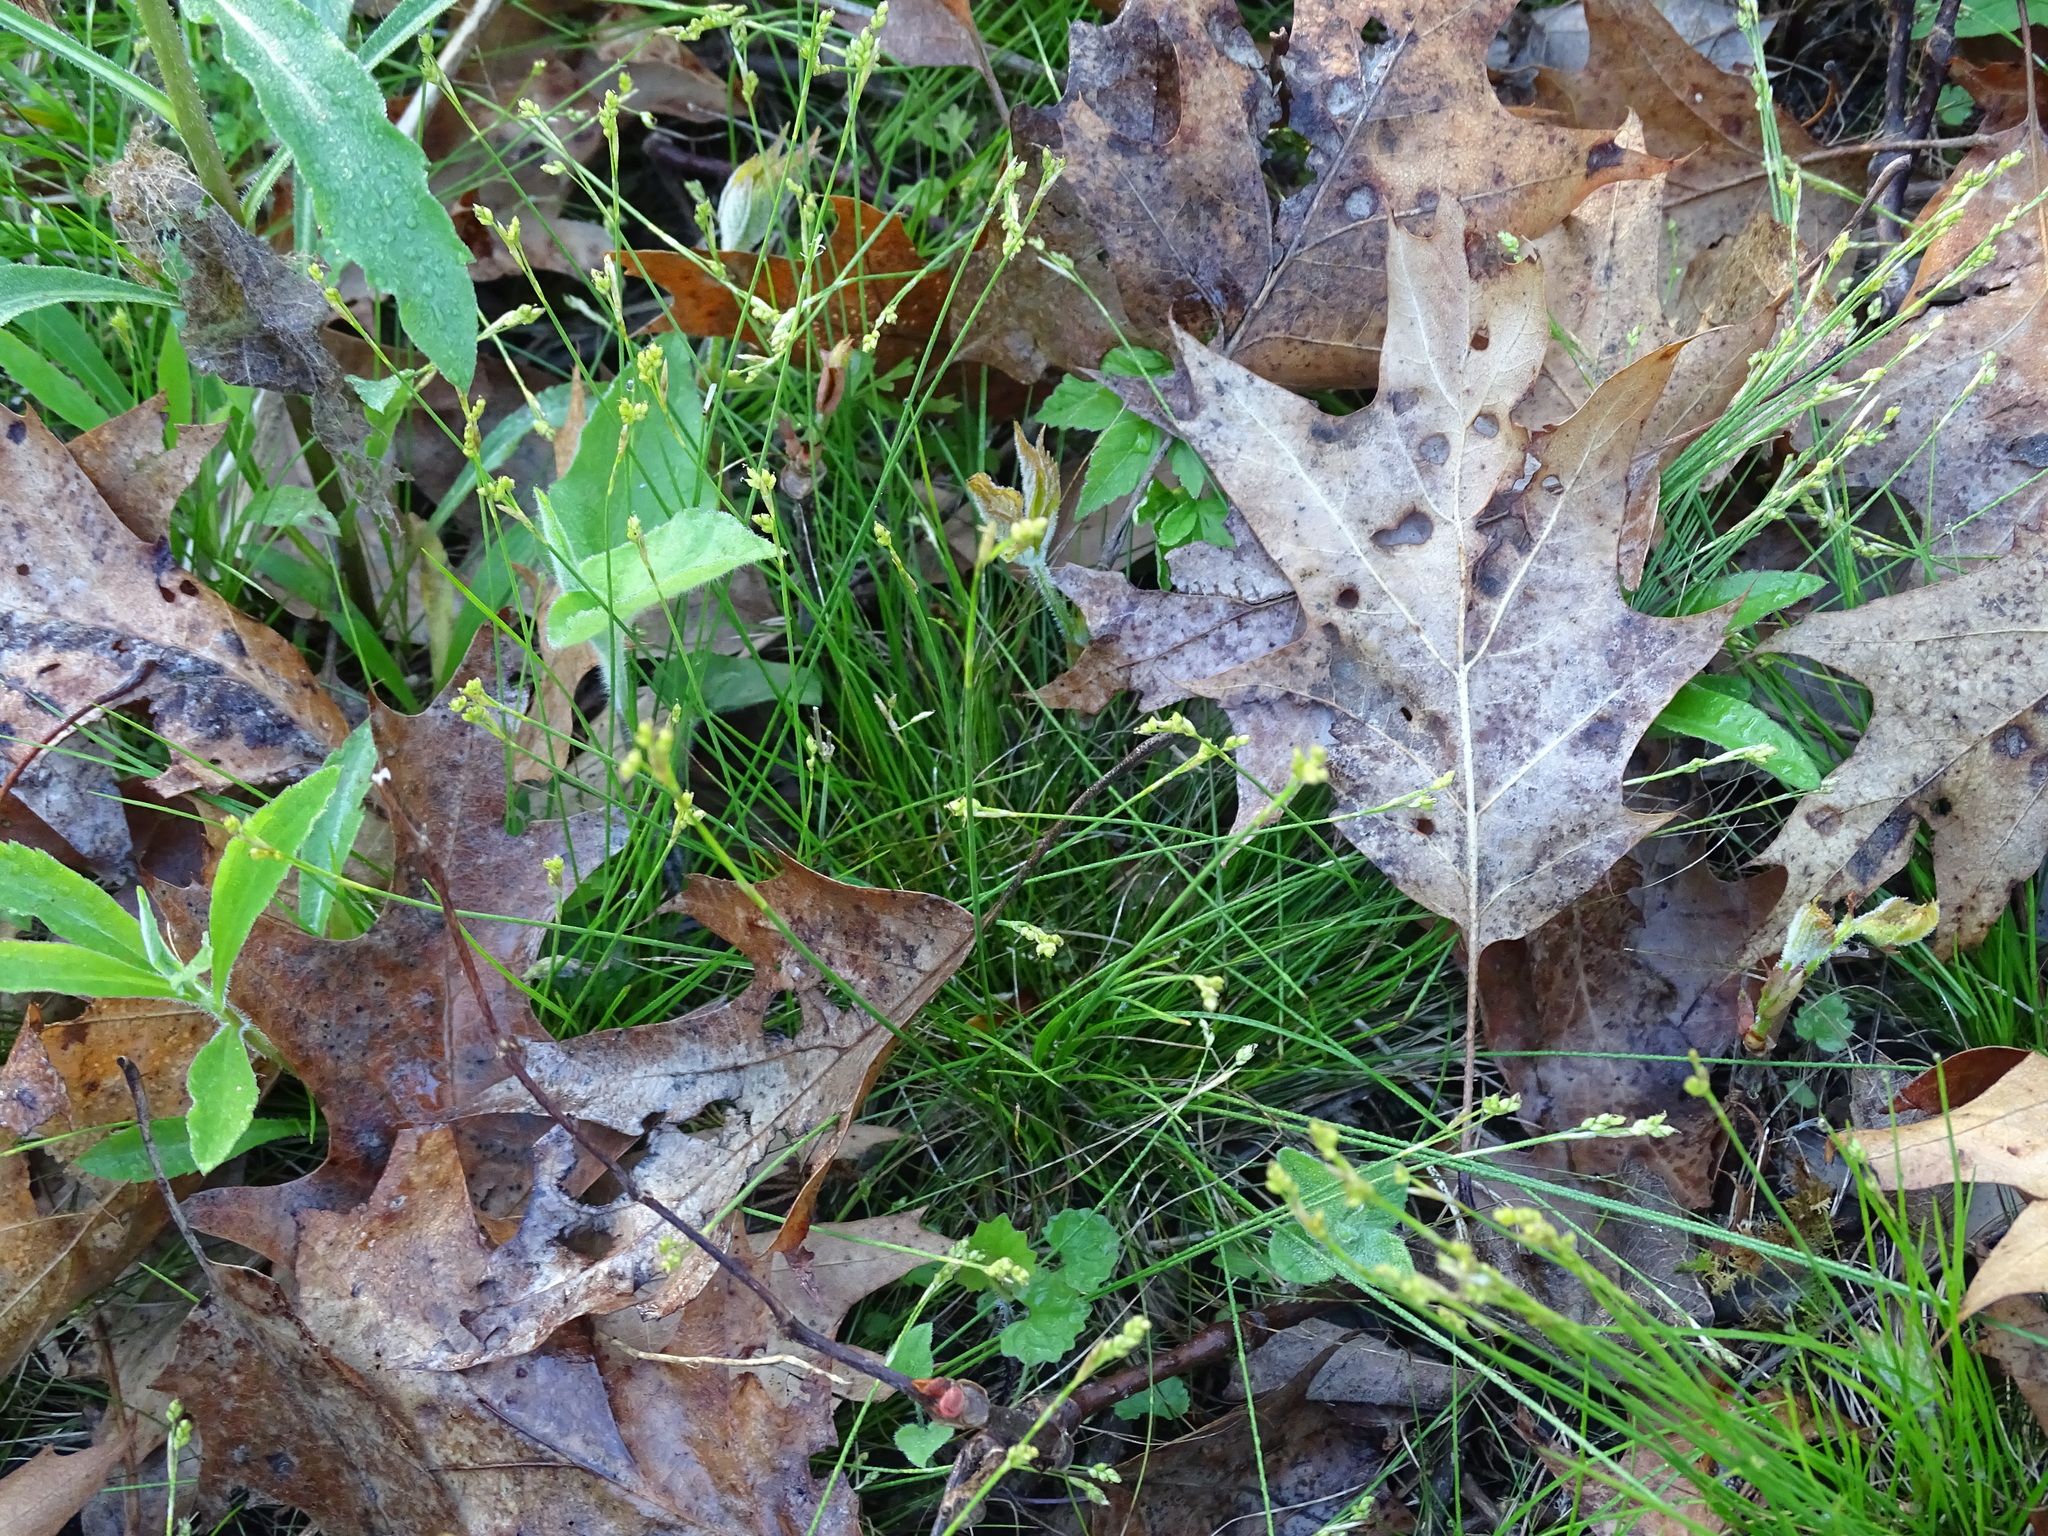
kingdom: Plantae
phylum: Tracheophyta
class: Liliopsida
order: Poales
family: Cyperaceae
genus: Carex
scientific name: Carex eburnea
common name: Bristle-leaved sedge
